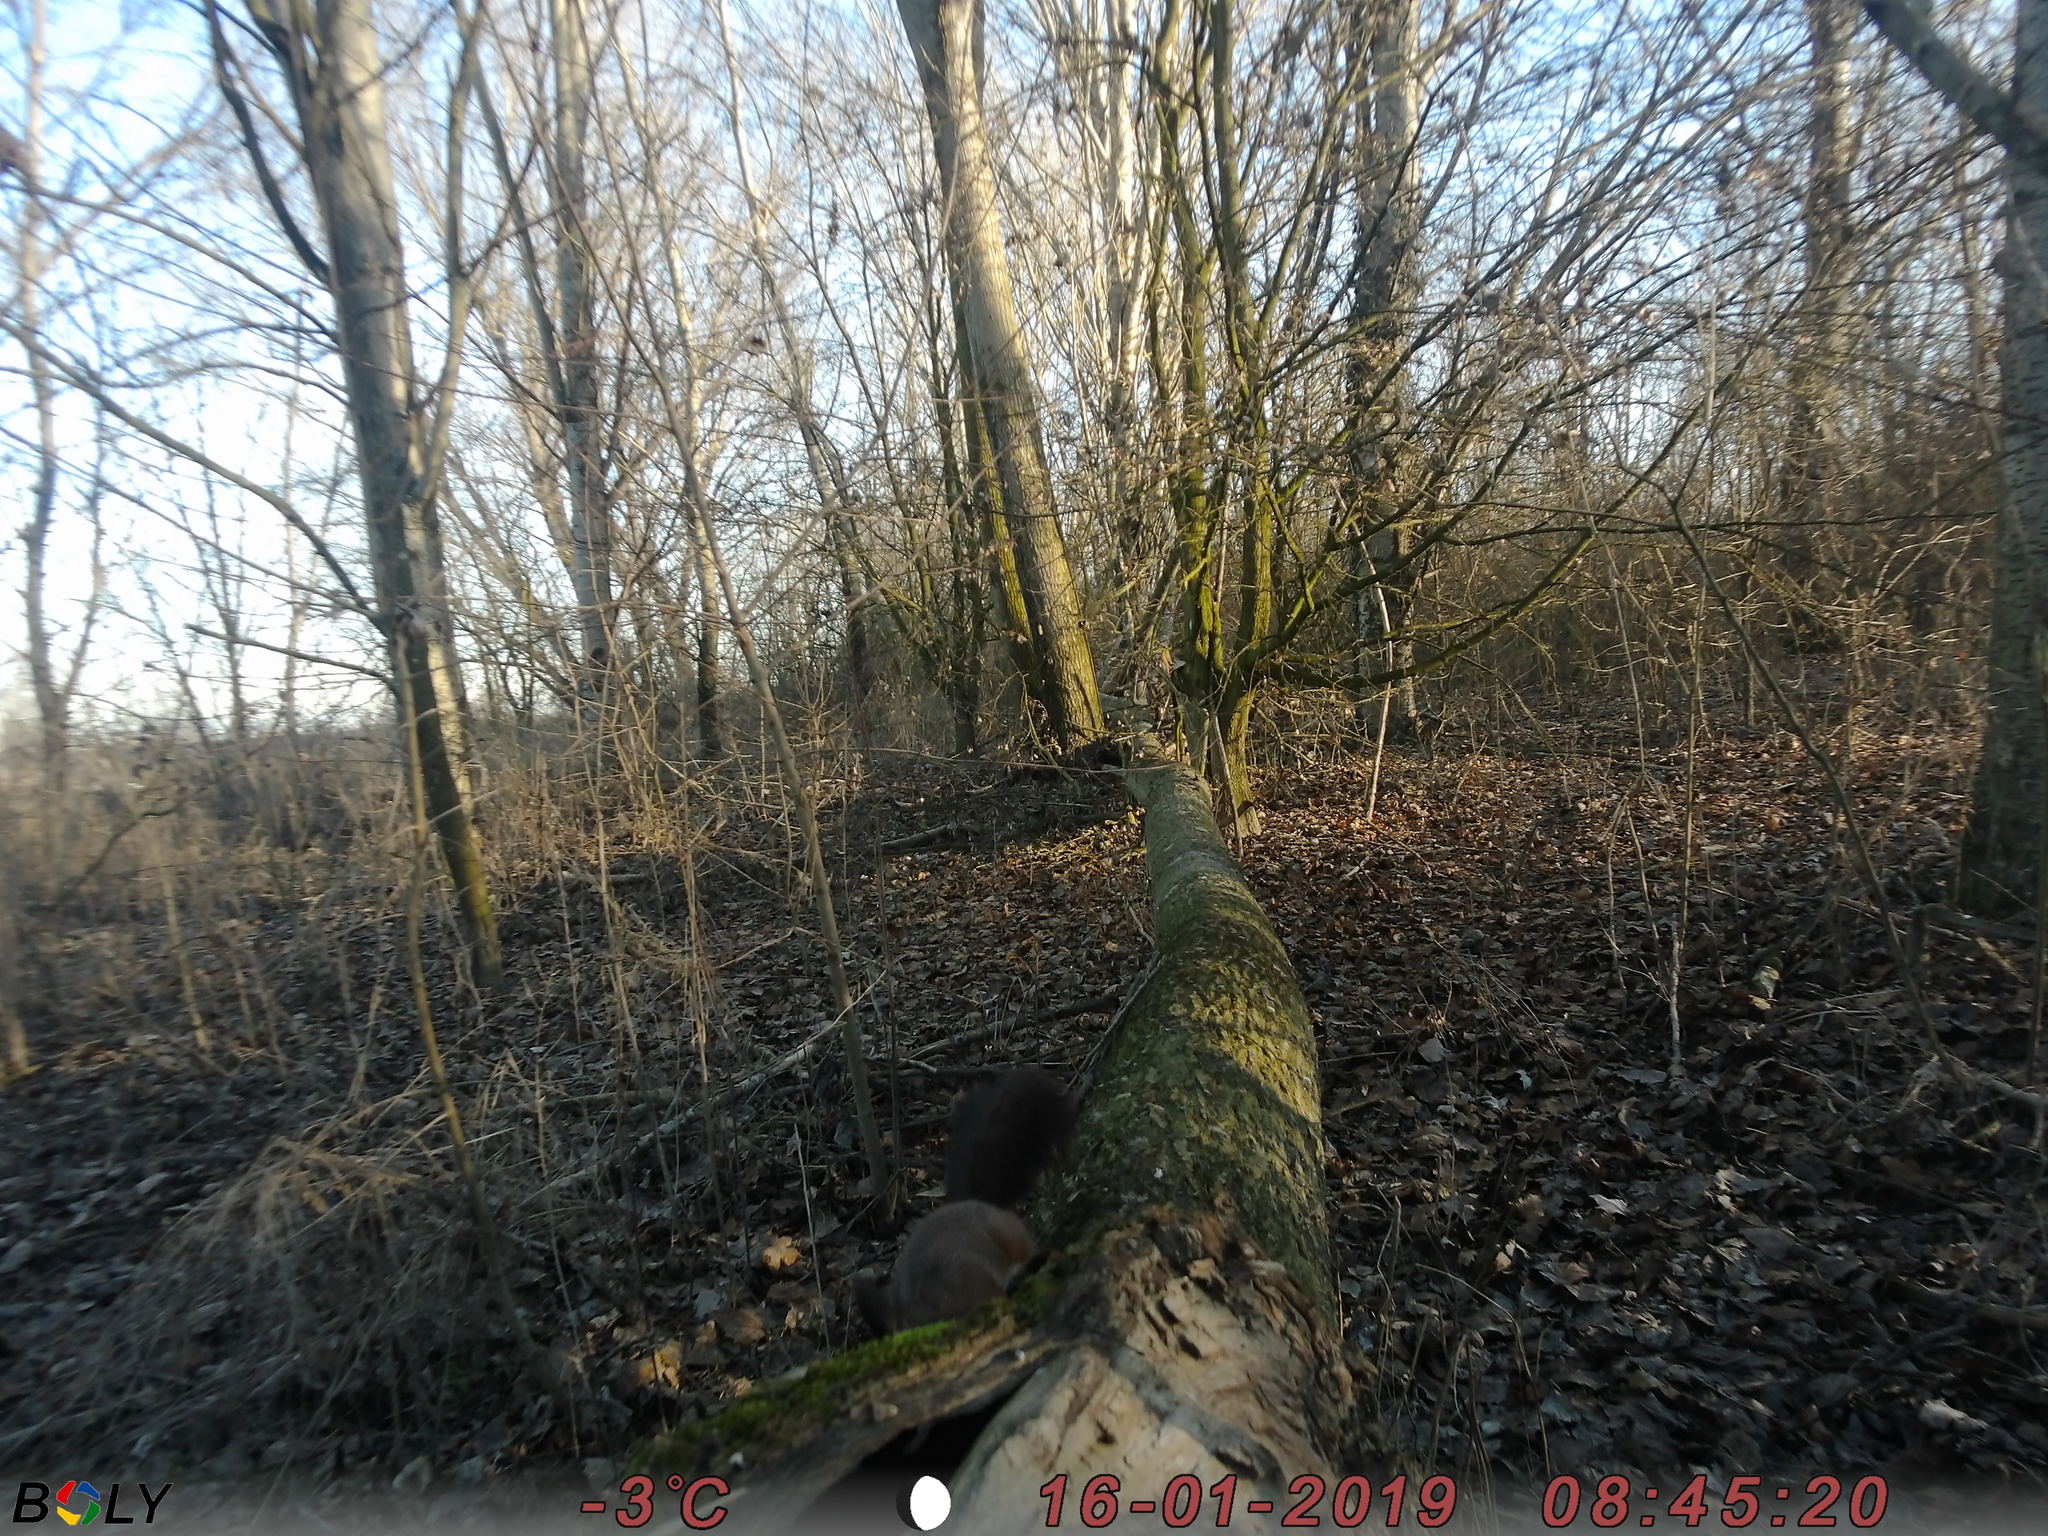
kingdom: Animalia
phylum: Chordata
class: Mammalia
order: Rodentia
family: Sciuridae
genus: Sciurus
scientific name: Sciurus vulgaris
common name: Eurasian red squirrel
